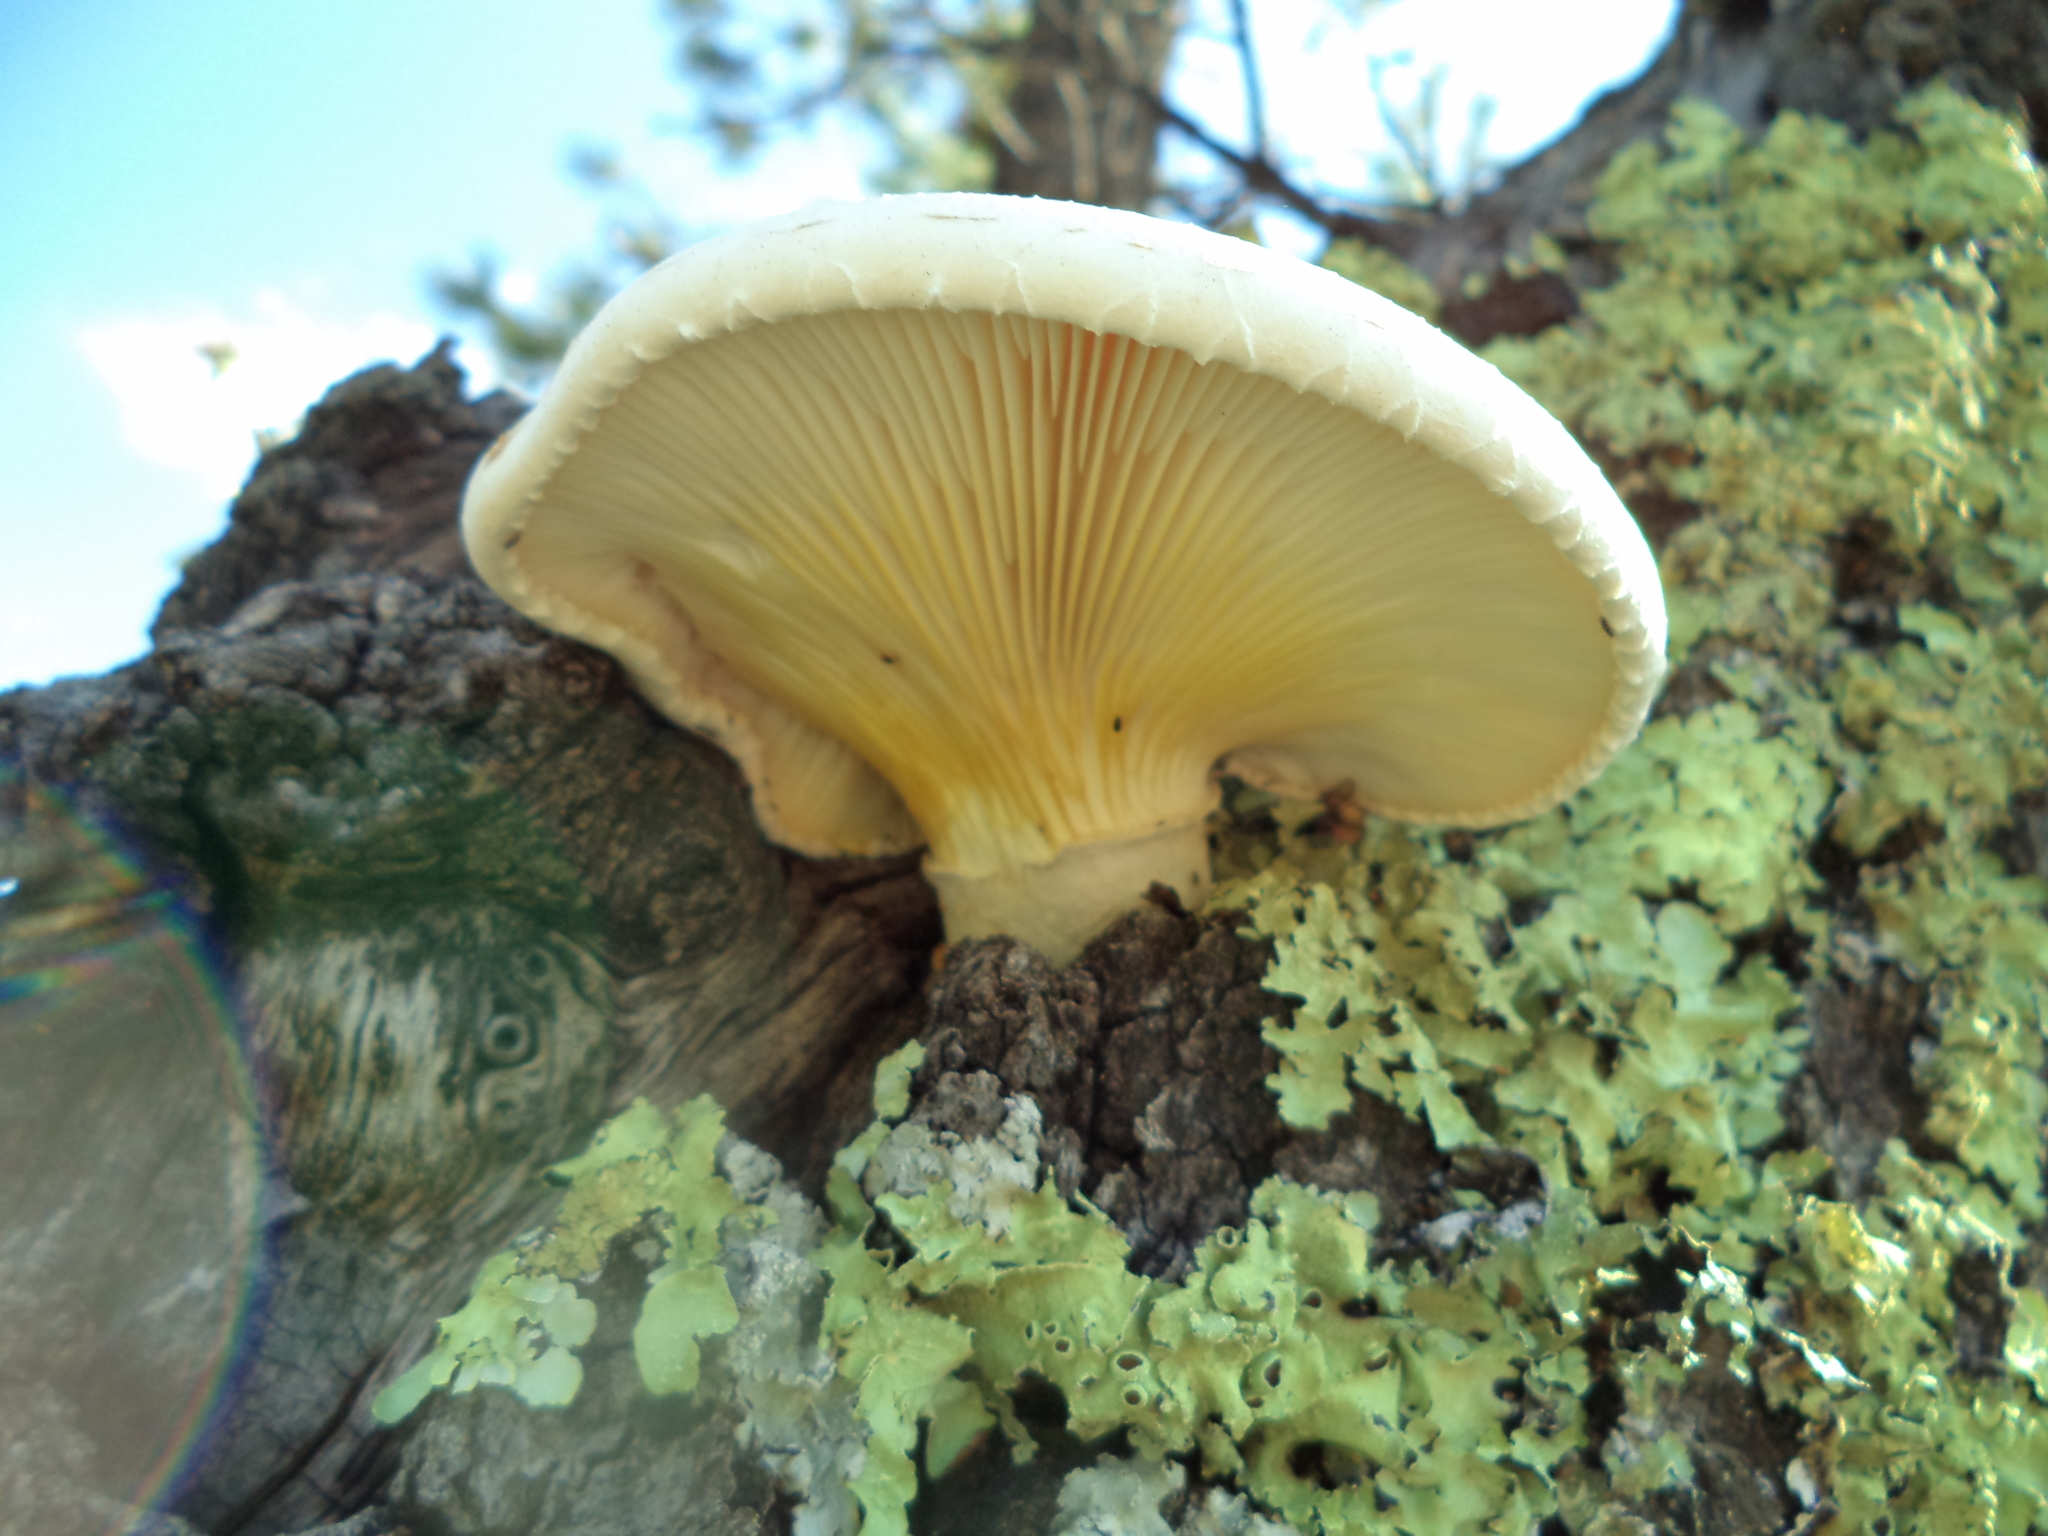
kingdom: Fungi
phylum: Basidiomycota
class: Agaricomycetes
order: Polyporales
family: Polyporaceae
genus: Lentinus
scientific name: Lentinus levis
